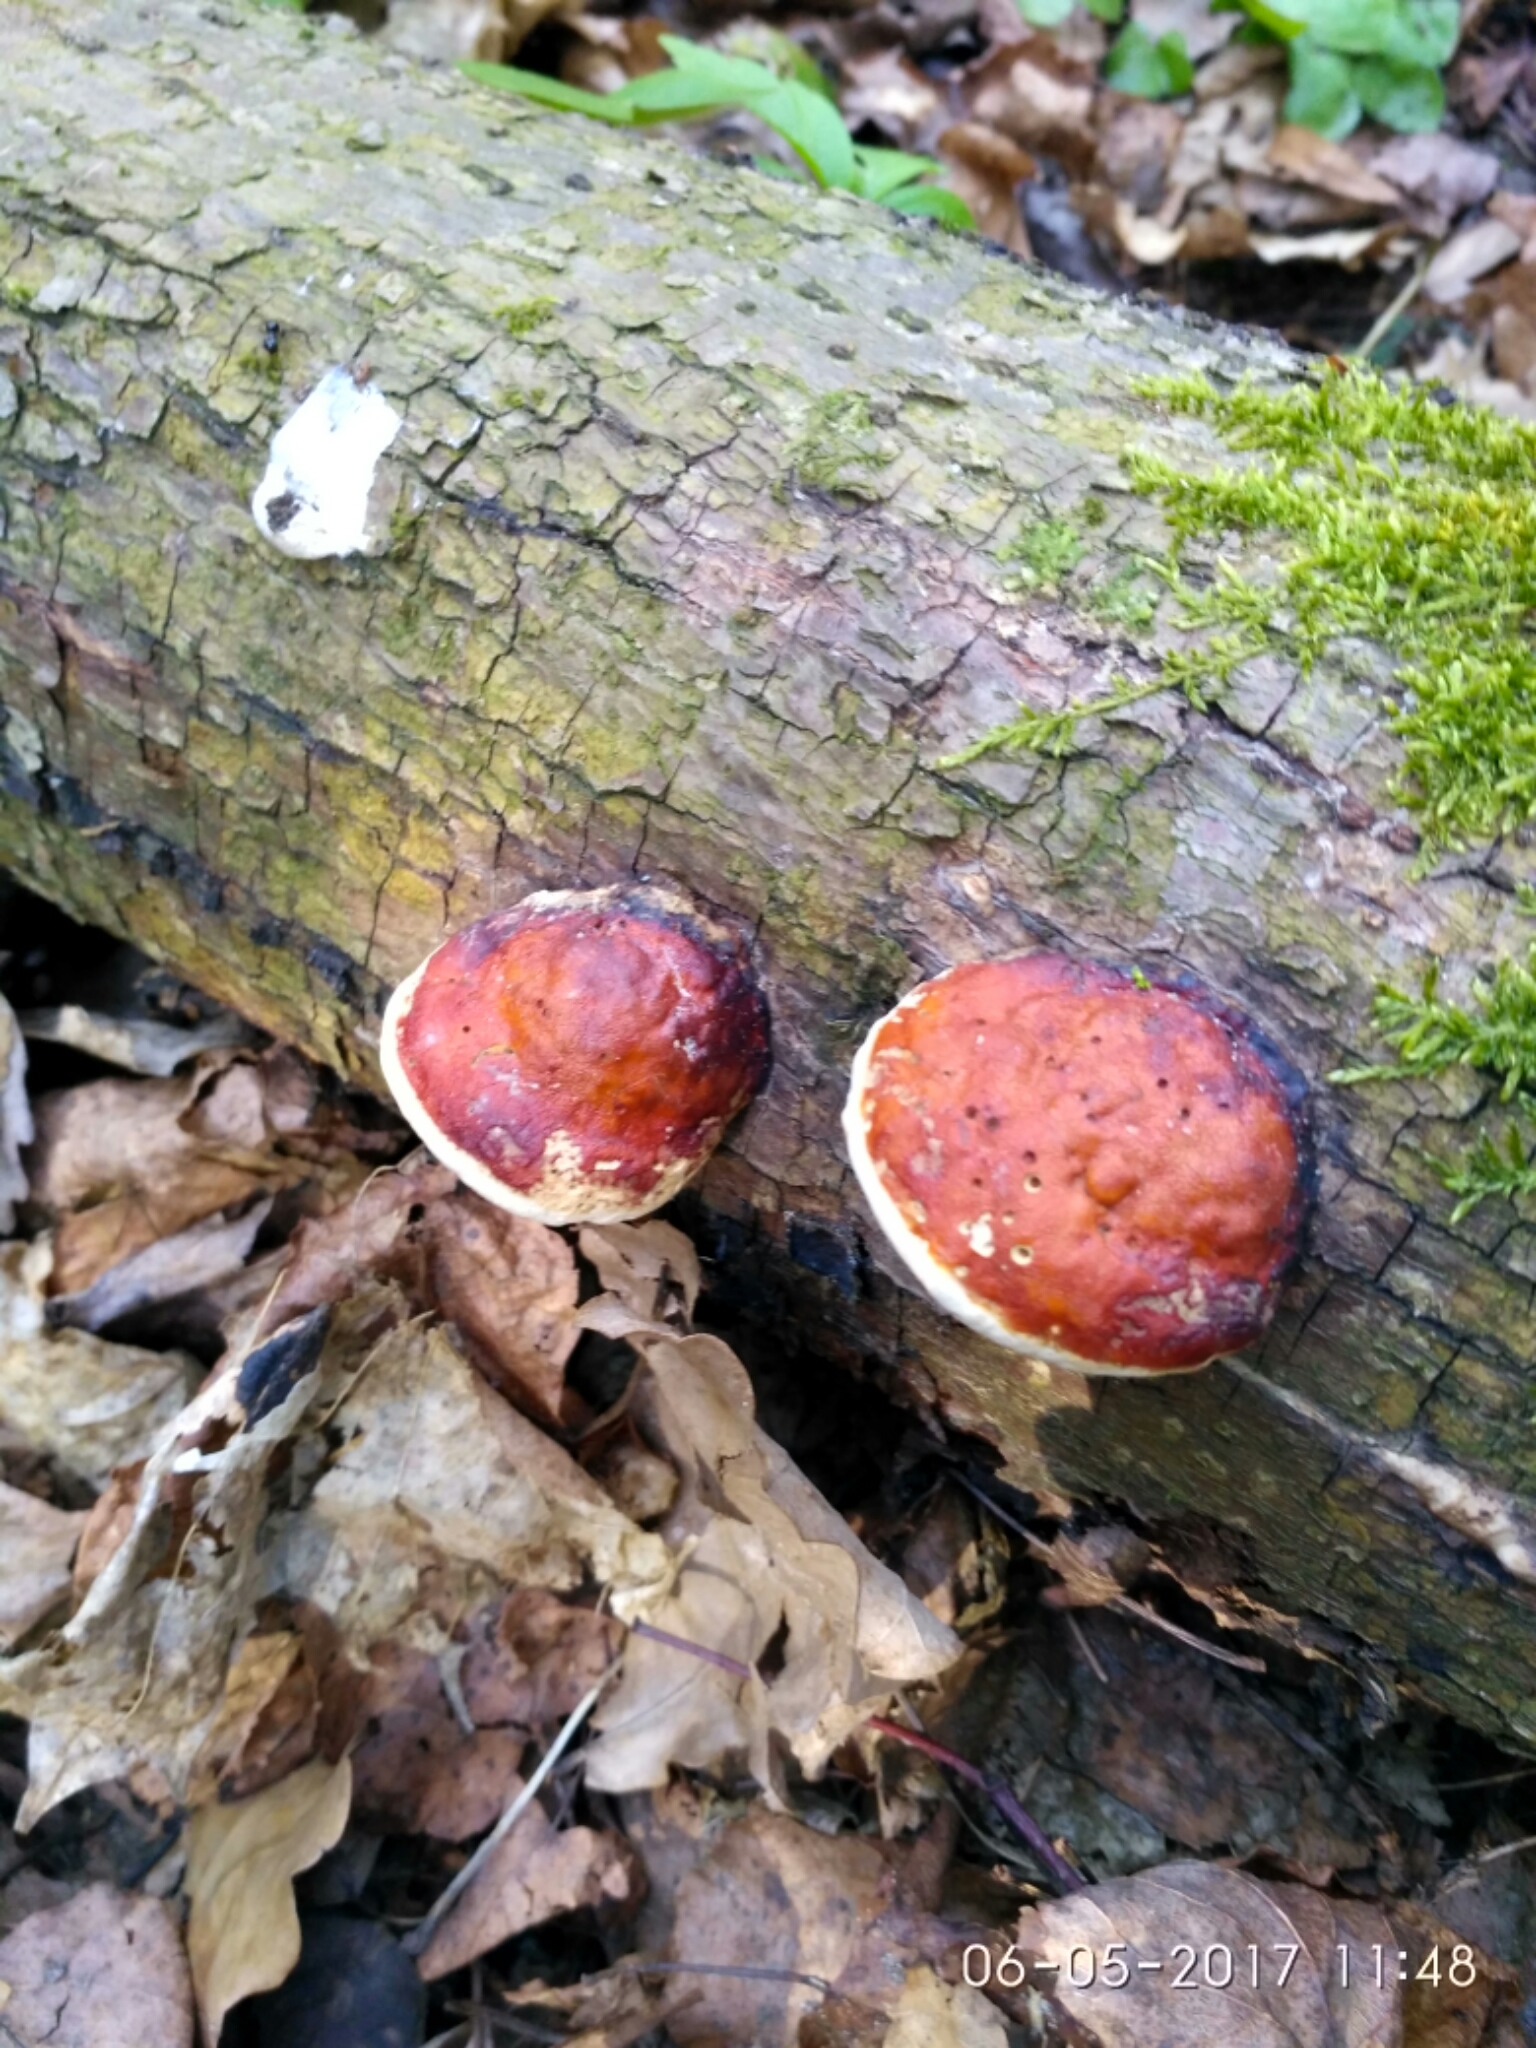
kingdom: Fungi
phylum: Basidiomycota
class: Agaricomycetes
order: Polyporales
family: Fomitopsidaceae
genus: Fomitopsis
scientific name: Fomitopsis pinicola
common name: Red-belted bracket
